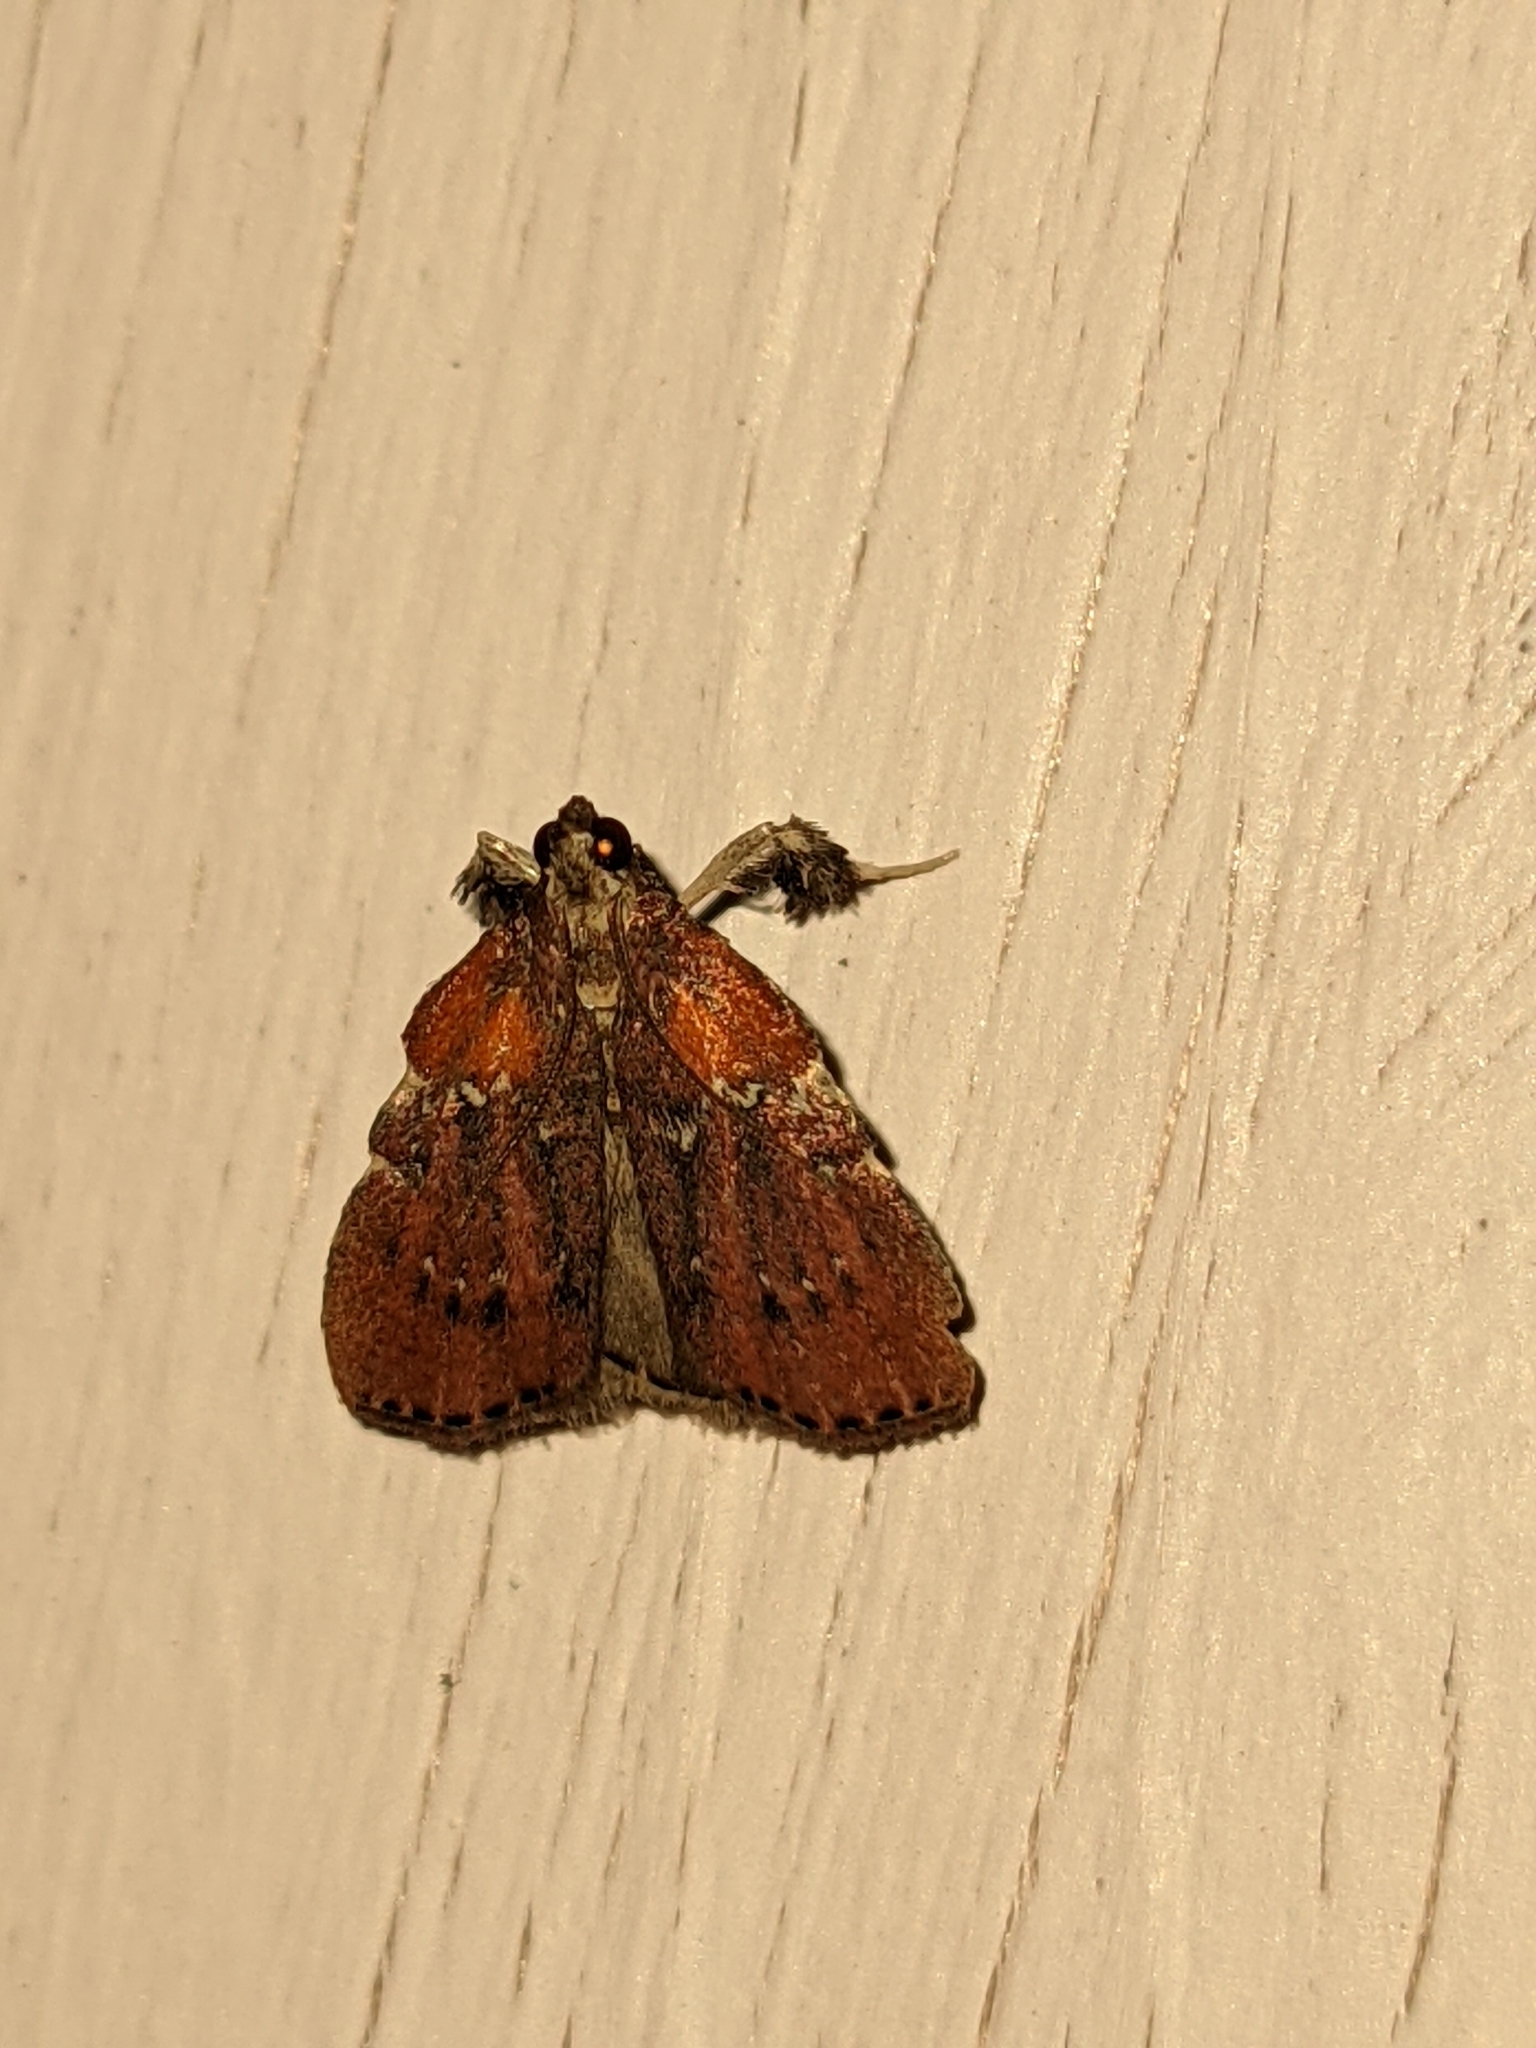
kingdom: Animalia
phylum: Arthropoda
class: Insecta
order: Lepidoptera
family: Pyralidae
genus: Galasa
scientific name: Galasa nigrinodis
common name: Boxwood leaftier moth
